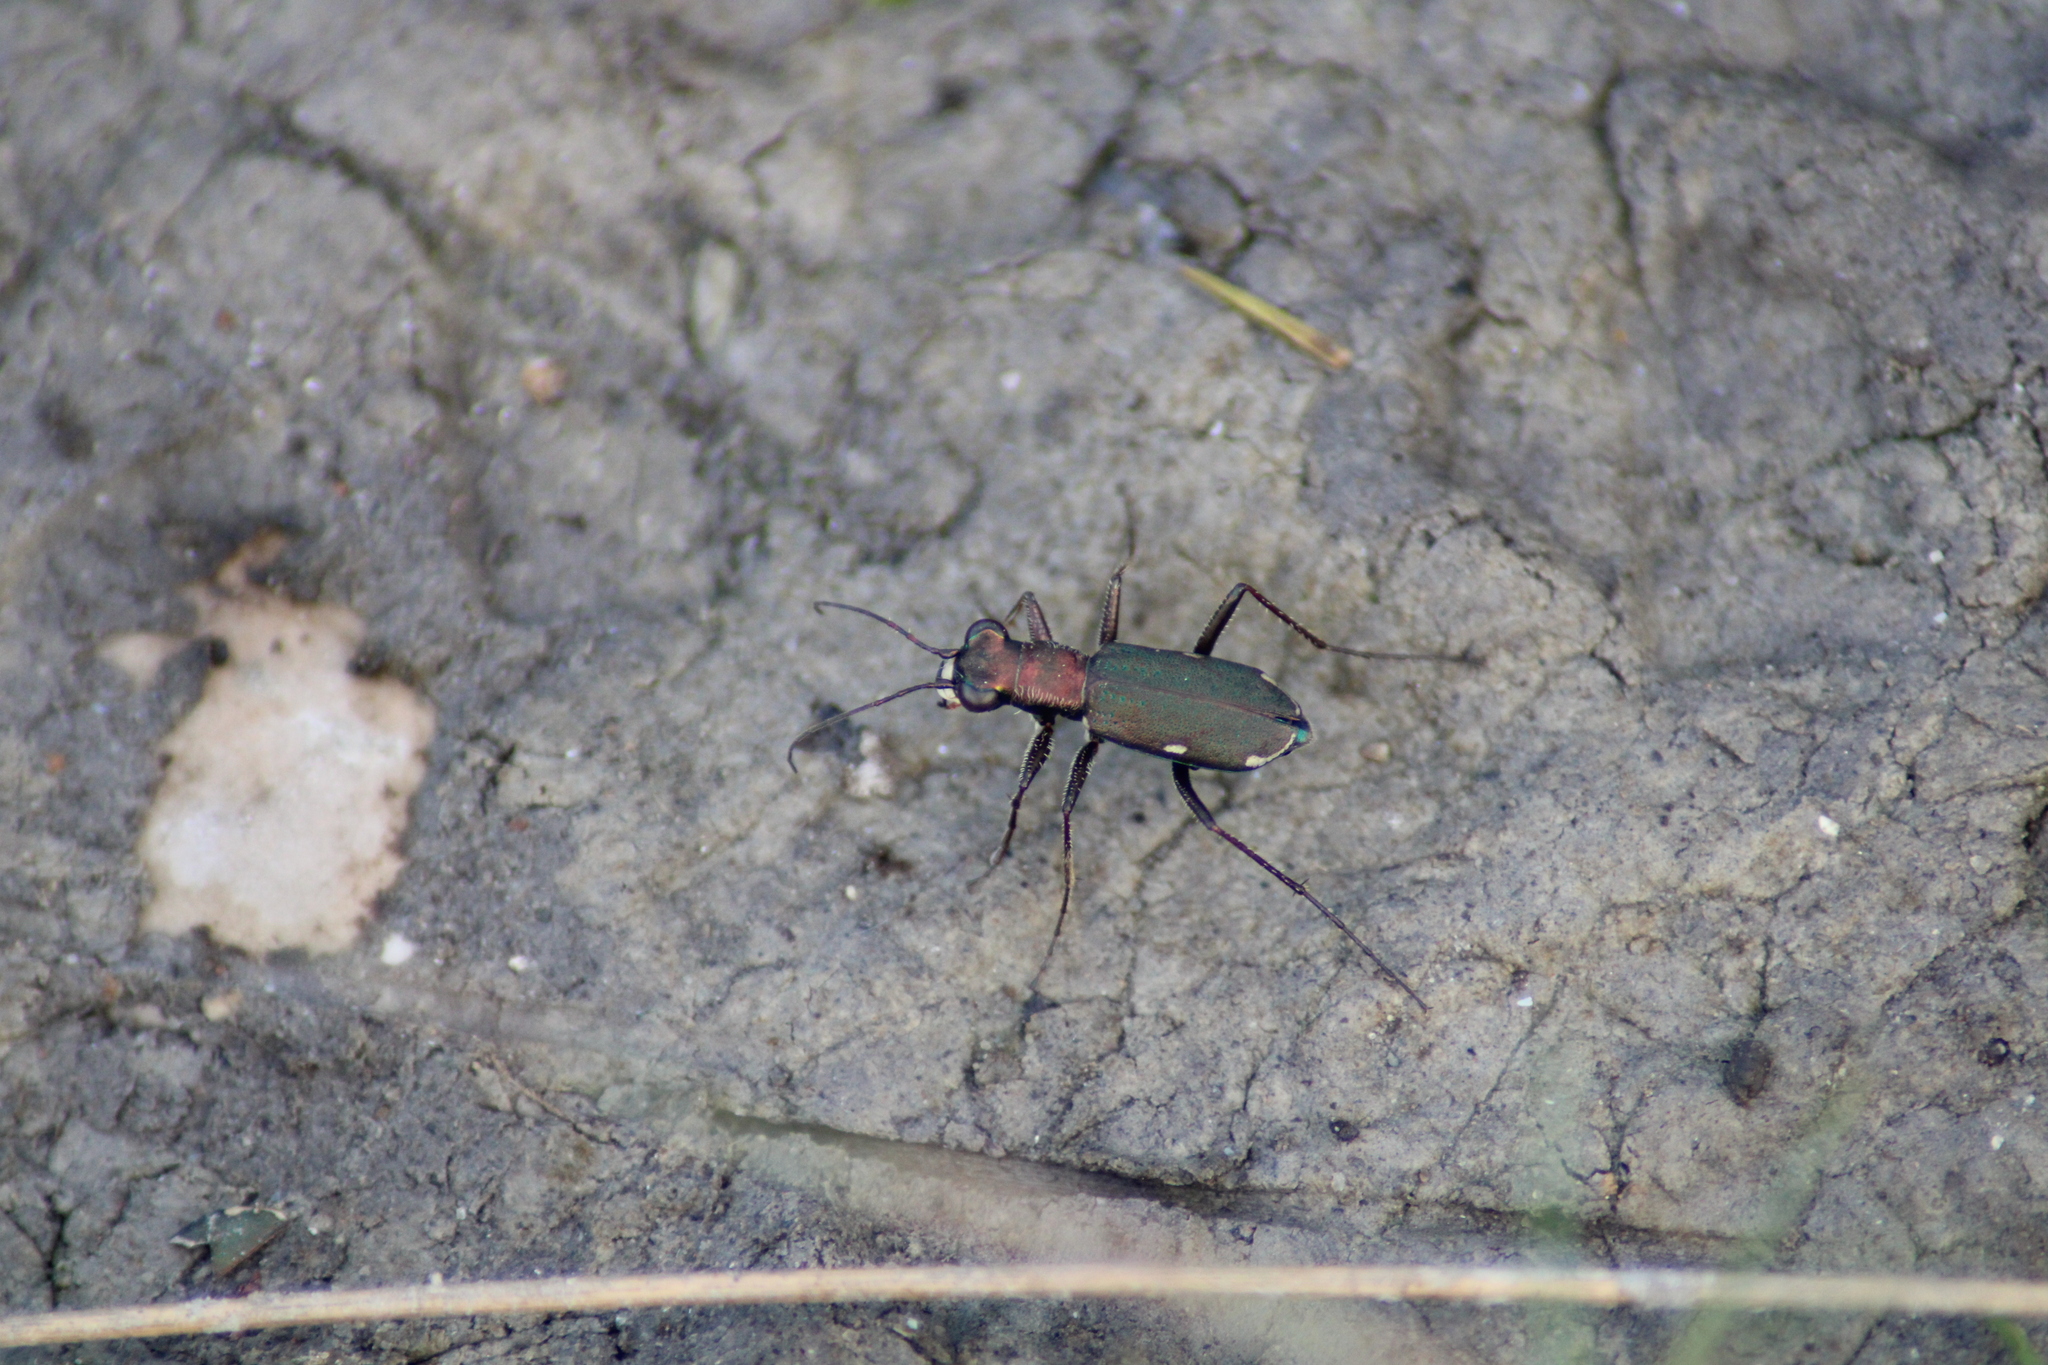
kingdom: Animalia
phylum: Arthropoda
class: Insecta
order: Coleoptera
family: Carabidae
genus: Cylindera
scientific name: Cylindera germanica
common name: Cliff tiger beetle
